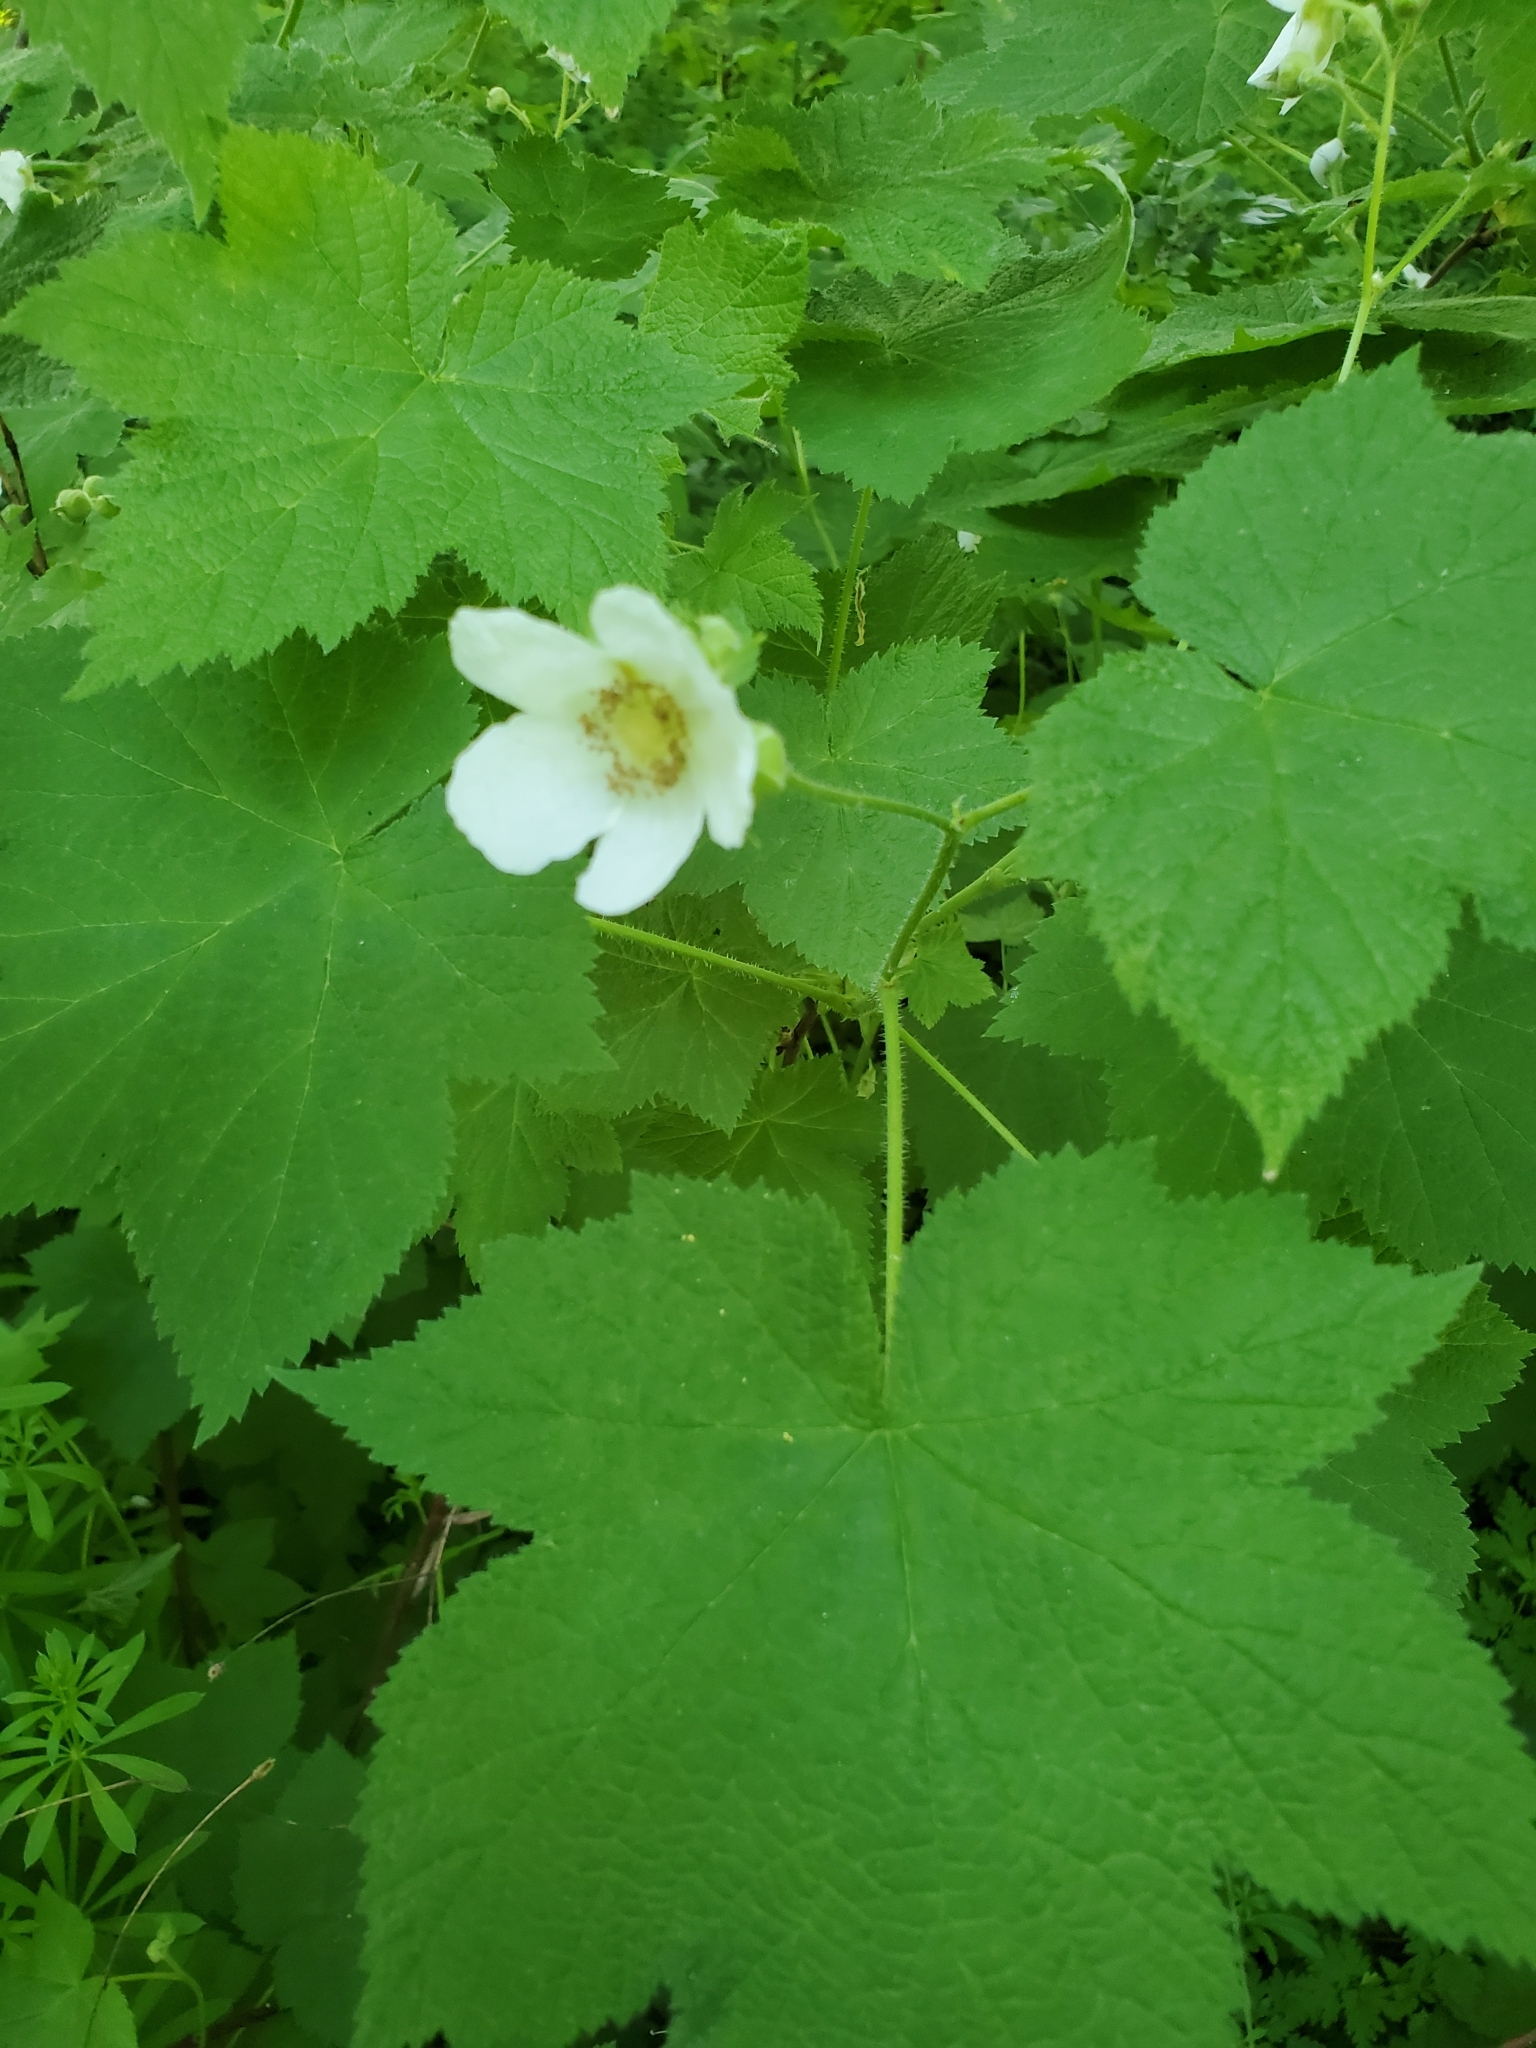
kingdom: Plantae
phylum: Tracheophyta
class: Magnoliopsida
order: Rosales
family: Rosaceae
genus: Rubus
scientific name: Rubus parviflorus
